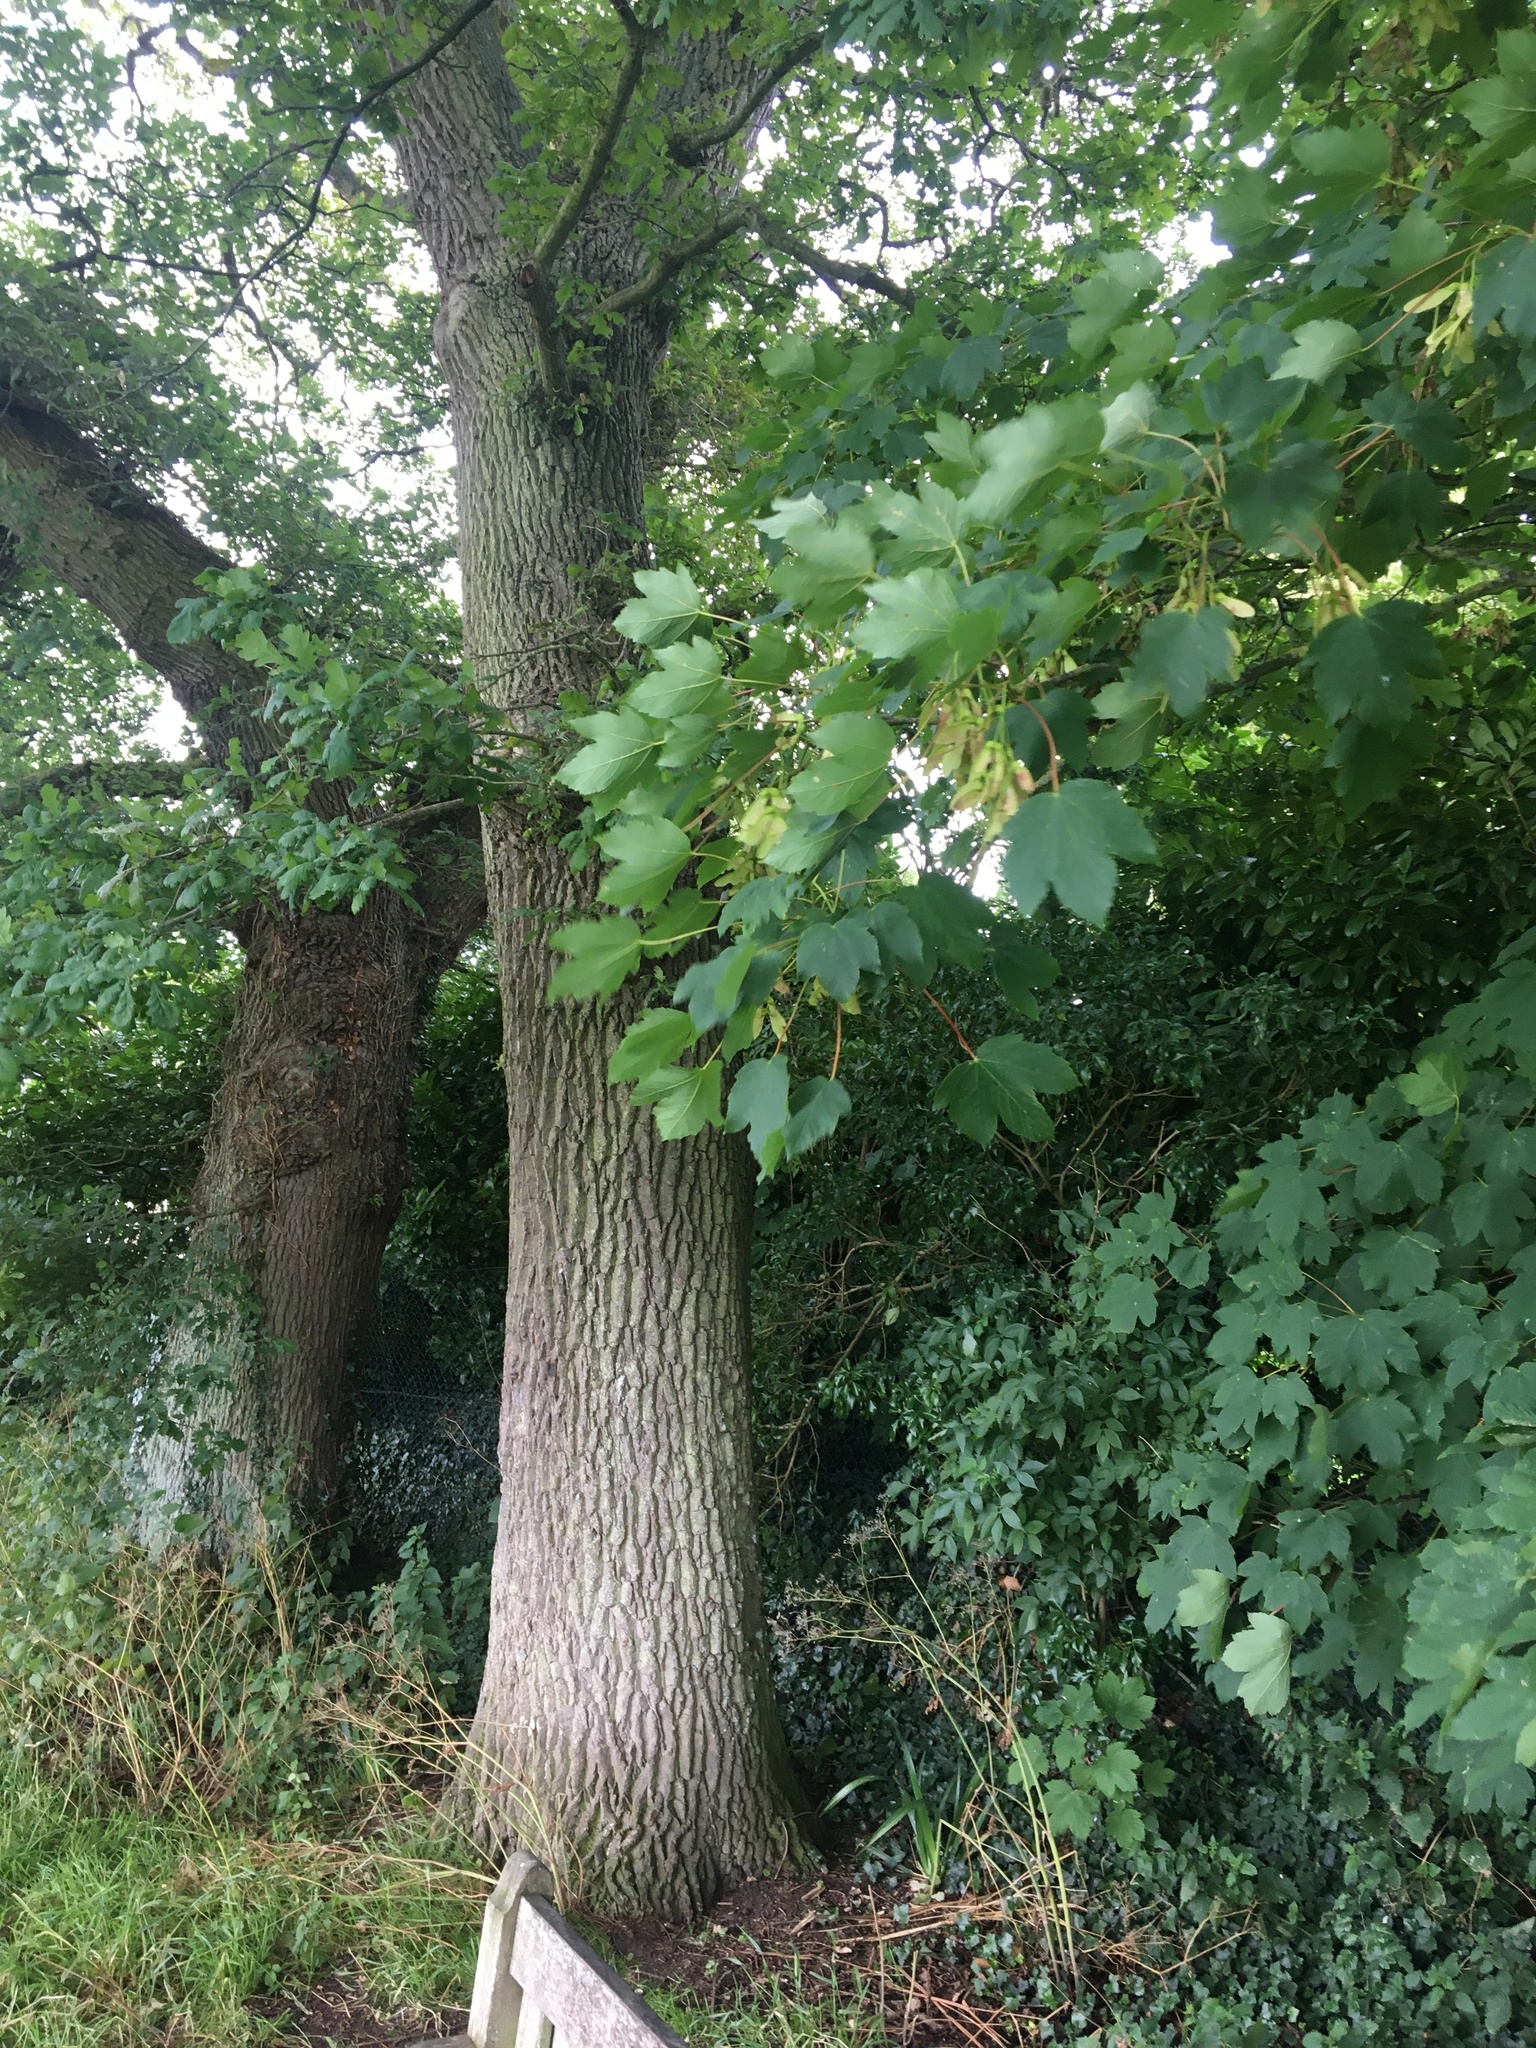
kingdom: Plantae
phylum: Tracheophyta
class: Magnoliopsida
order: Sapindales
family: Sapindaceae
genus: Acer
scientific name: Acer pseudoplatanus
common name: Sycamore
